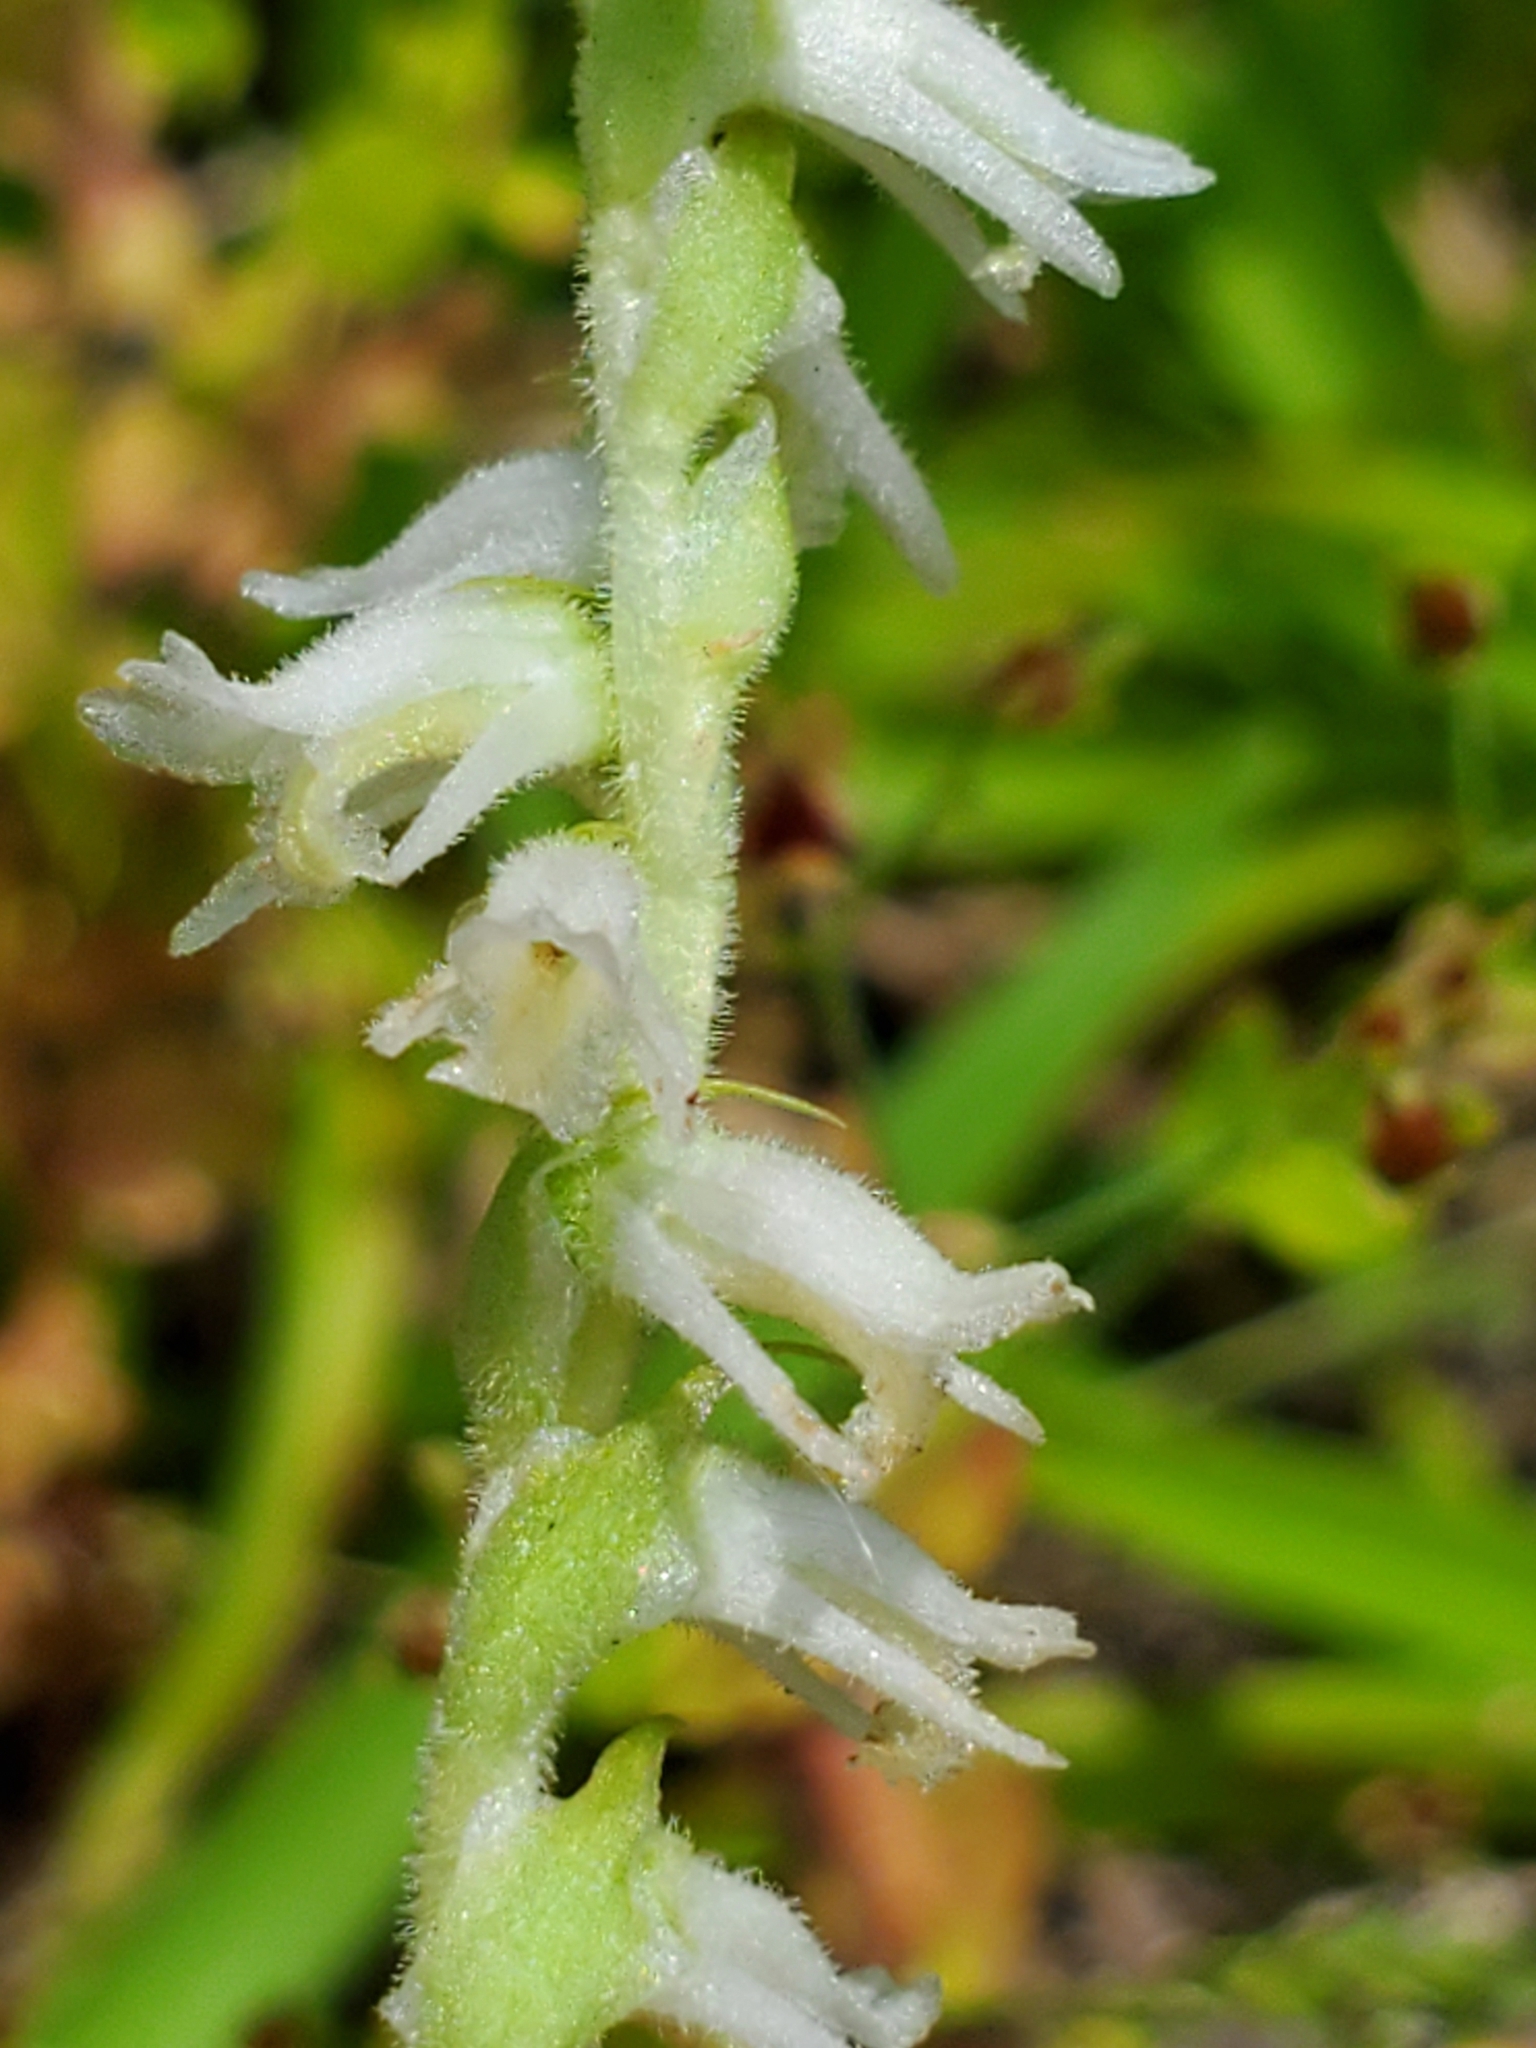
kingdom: Plantae
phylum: Tracheophyta
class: Liliopsida
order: Asparagales
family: Orchidaceae
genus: Spiranthes
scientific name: Spiranthes vernalis
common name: Spring ladies'-tresses
